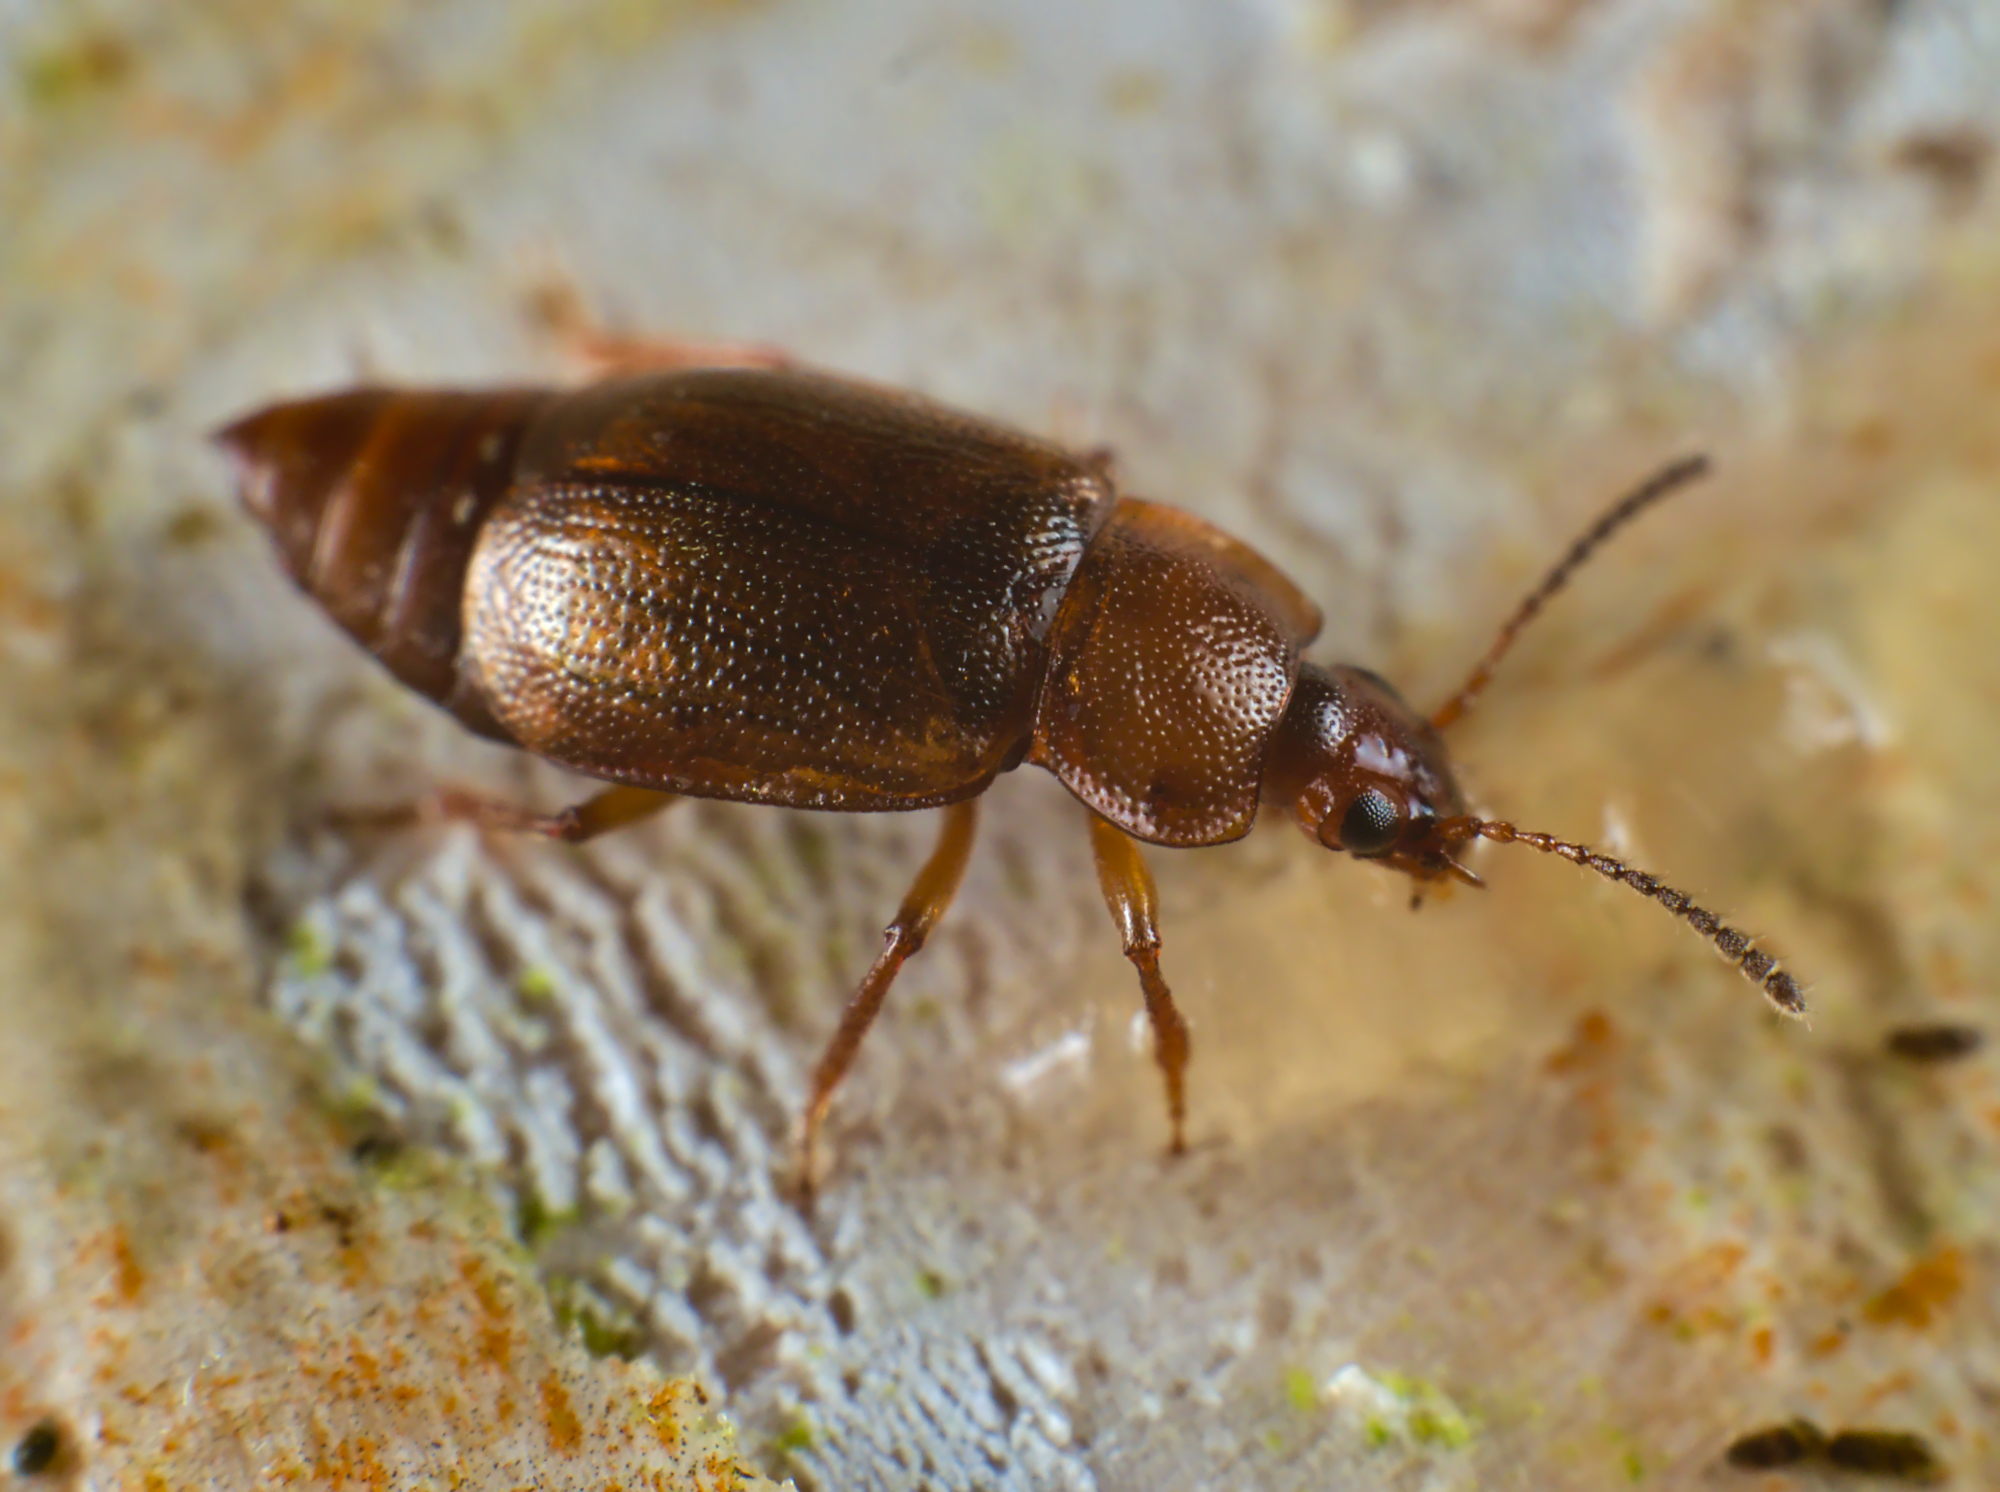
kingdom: Animalia
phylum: Arthropoda
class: Insecta
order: Coleoptera
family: Staphylinidae
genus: Anthobium
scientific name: Anthobium unicolor
